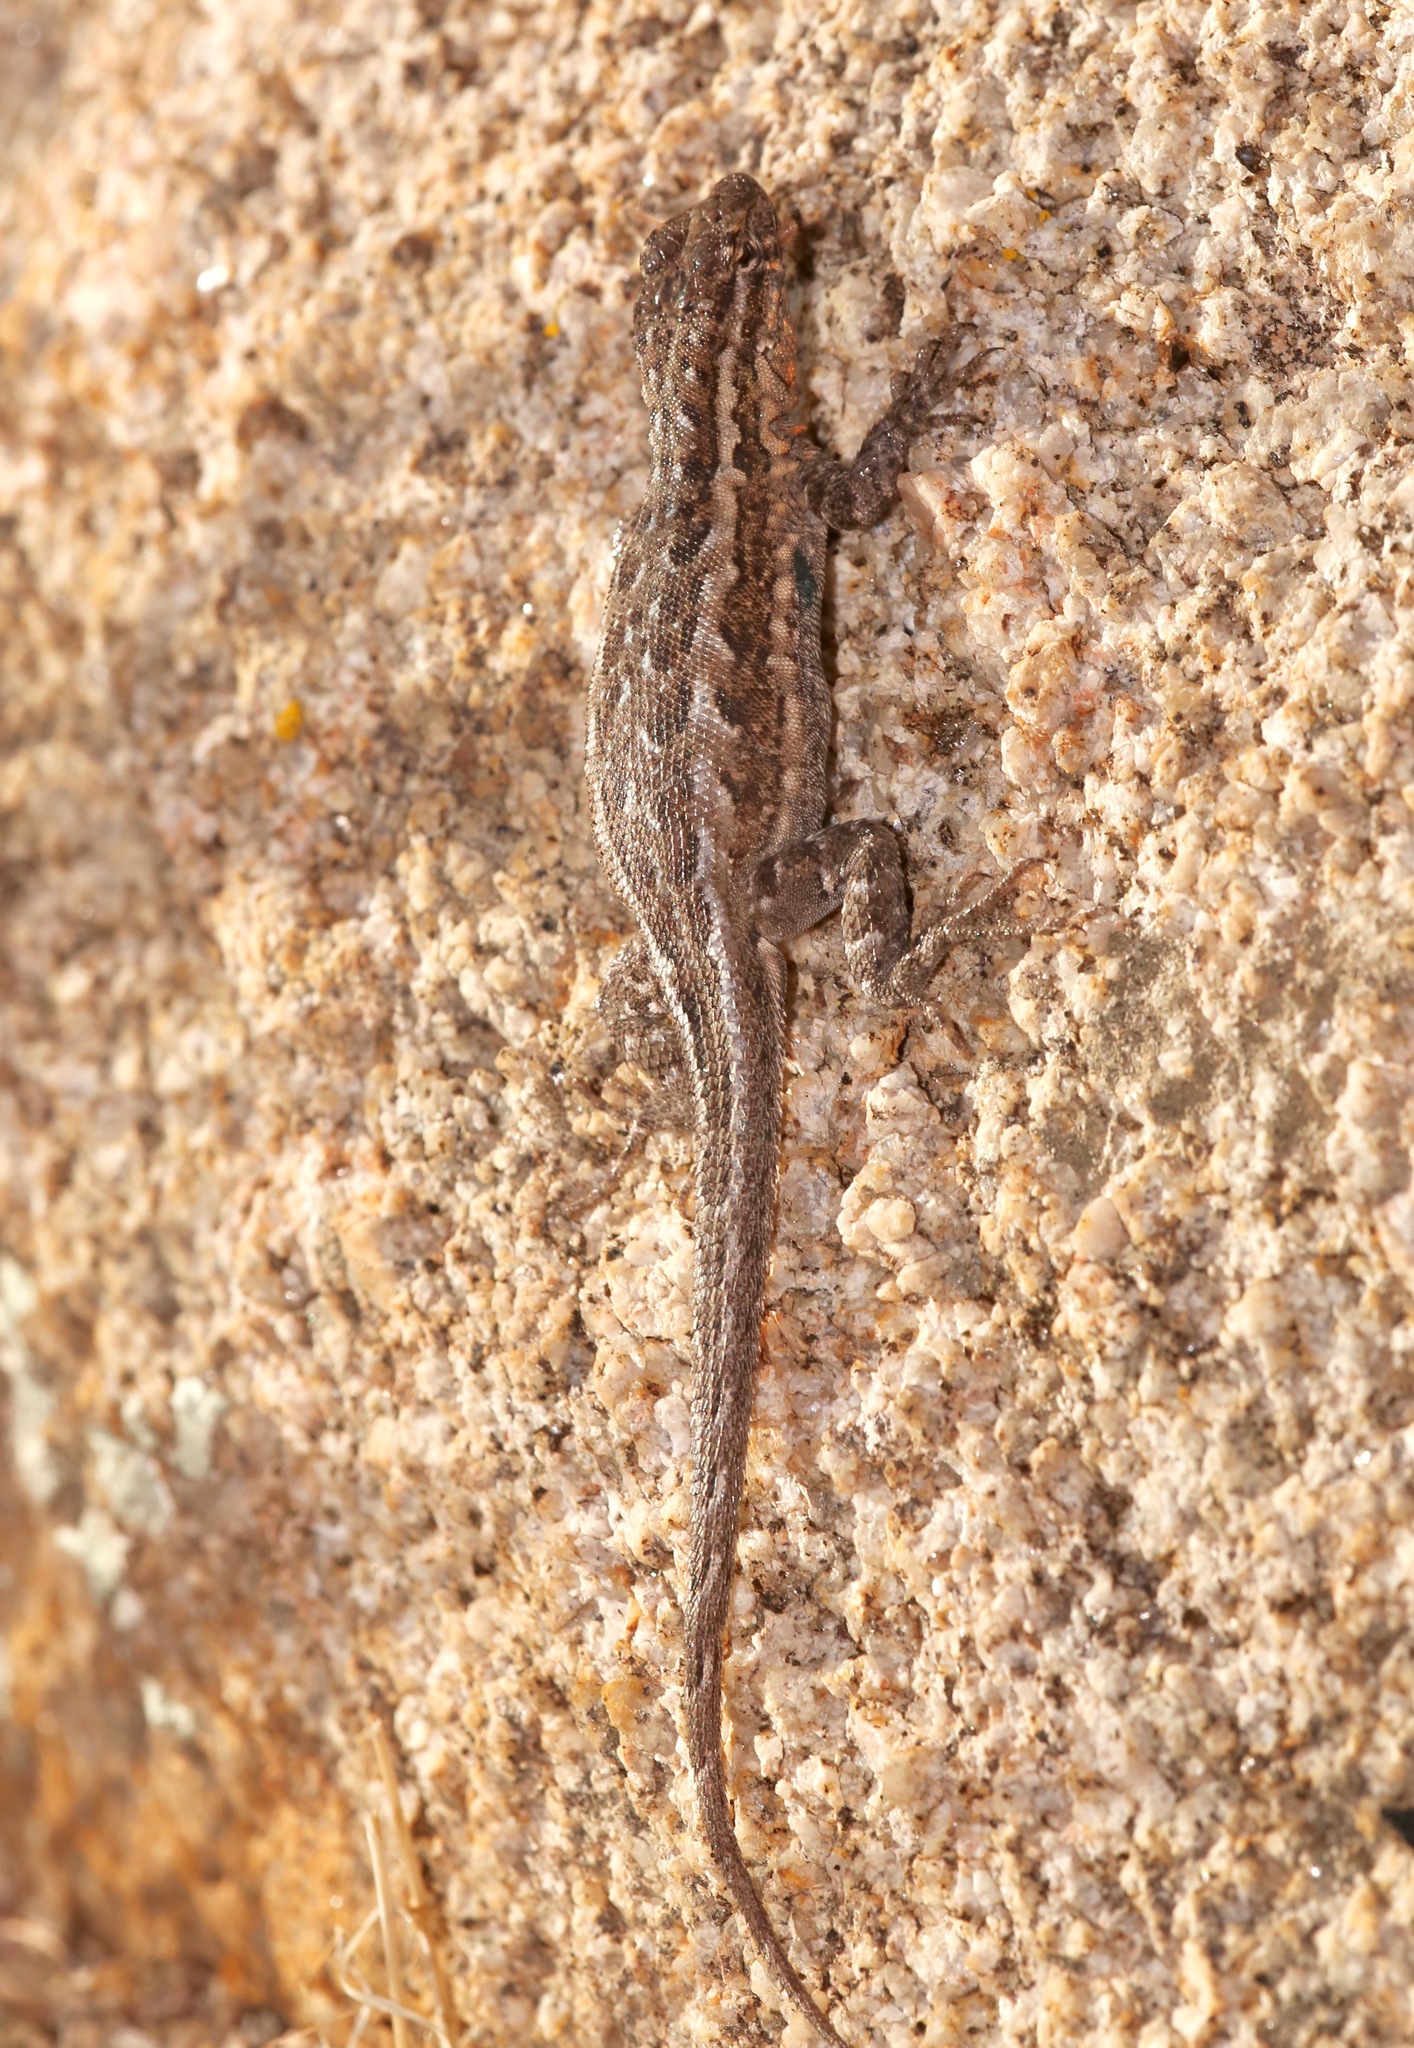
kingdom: Animalia
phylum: Chordata
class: Squamata
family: Phrynosomatidae
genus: Uta
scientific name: Uta stansburiana
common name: Side-blotched lizard
